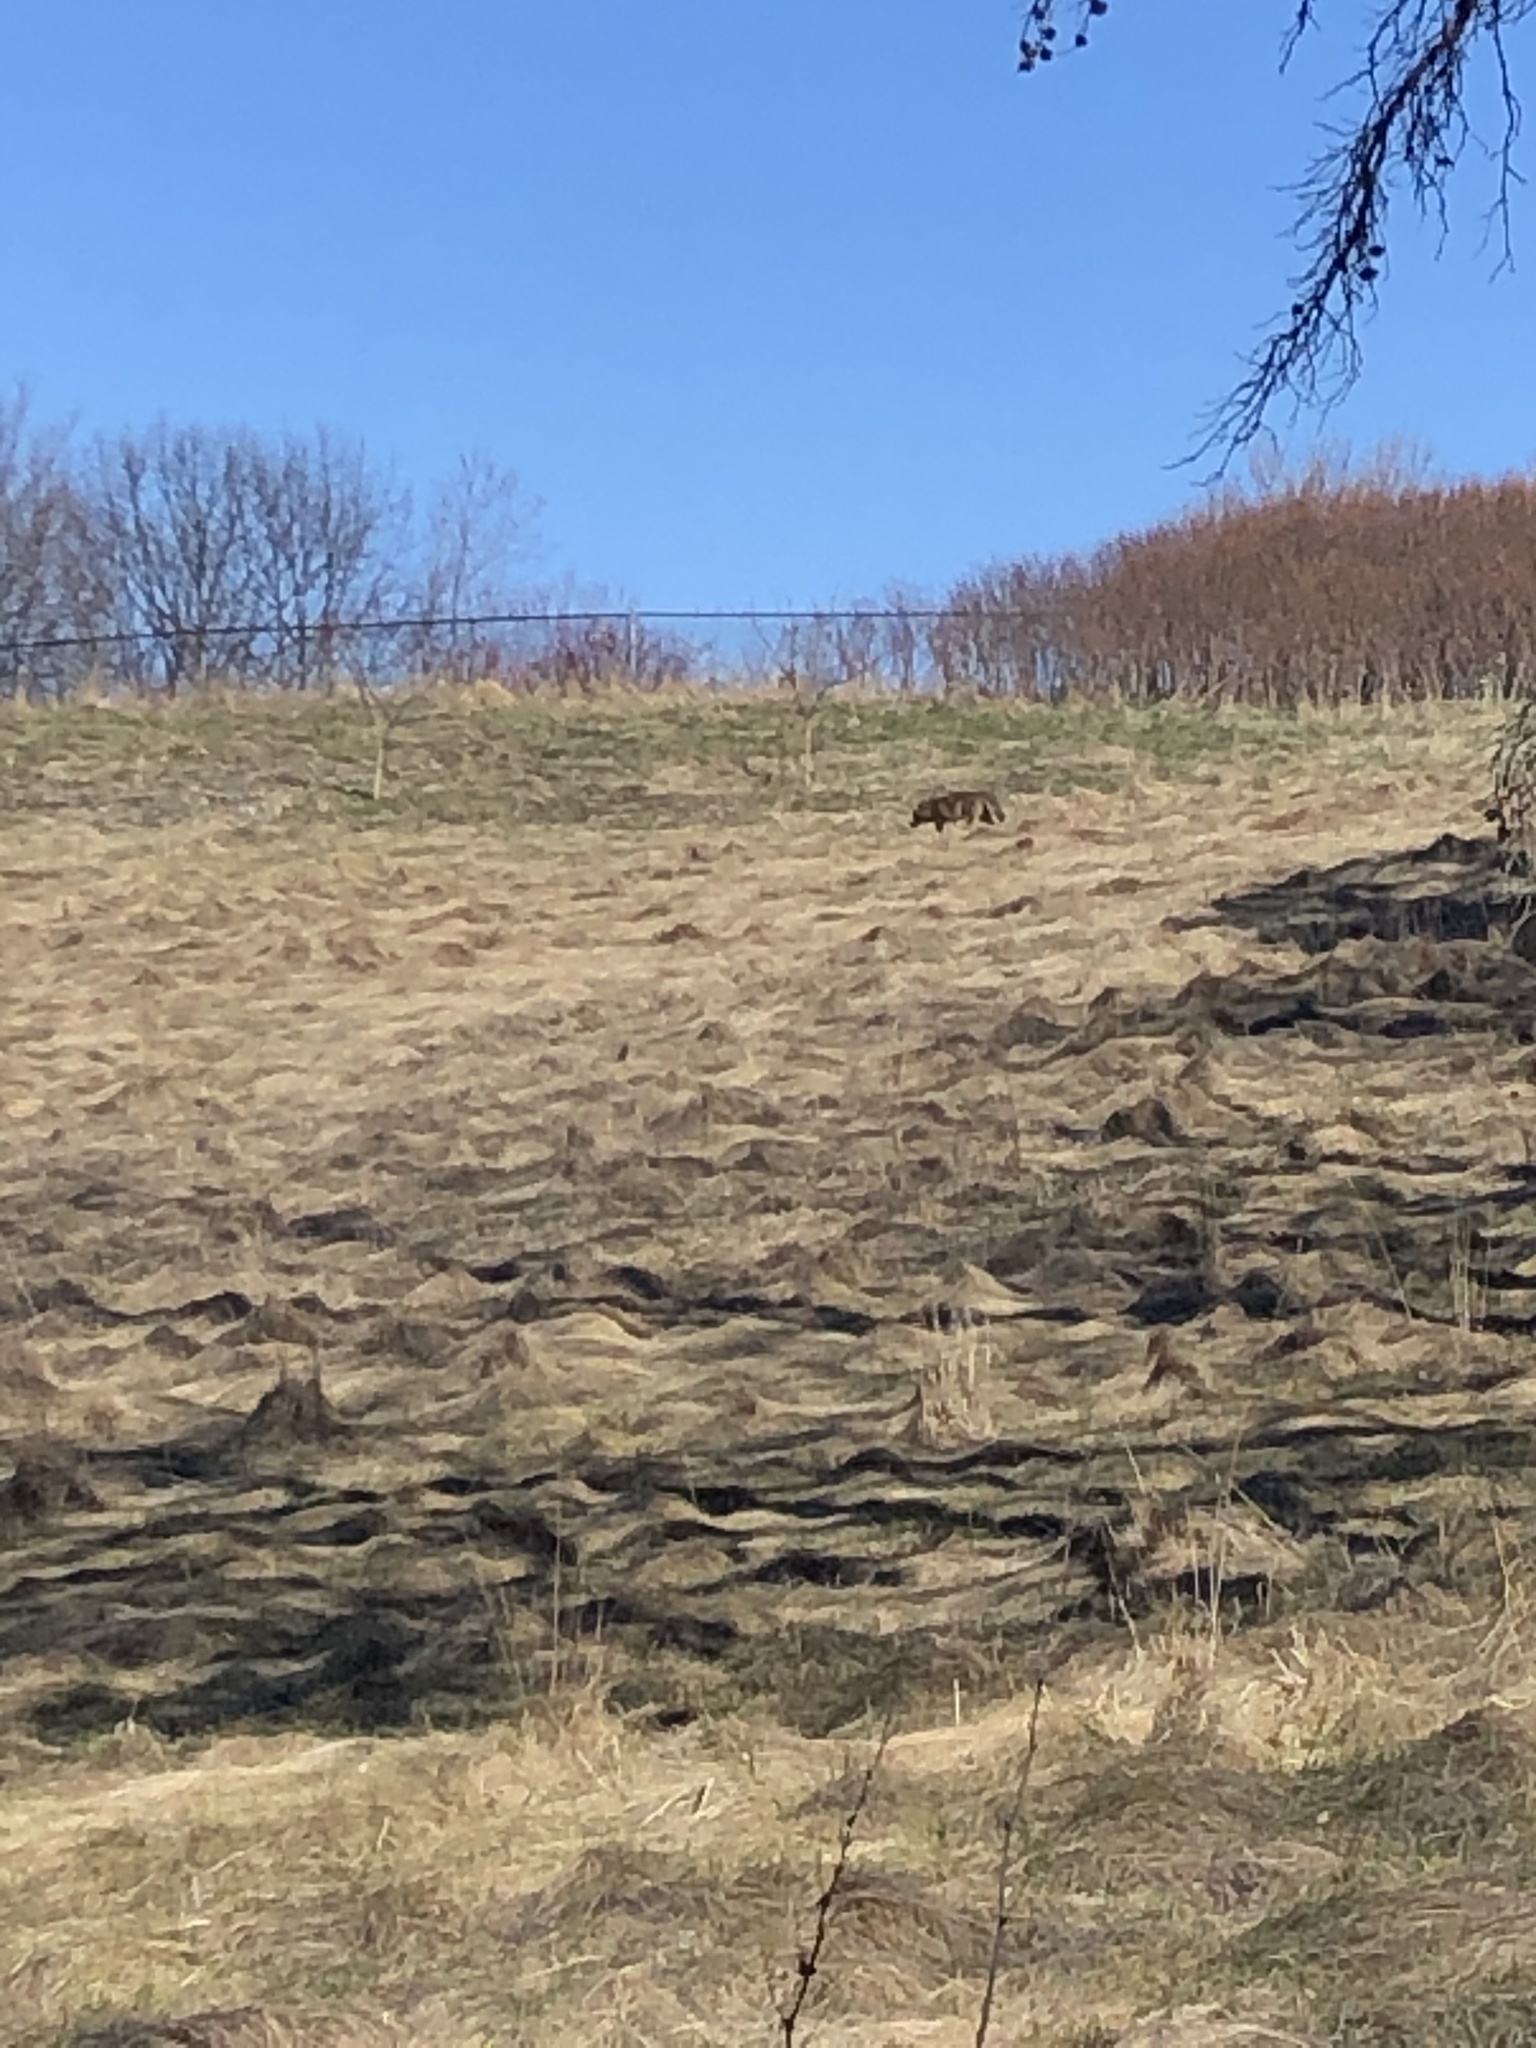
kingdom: Animalia
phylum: Chordata
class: Mammalia
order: Carnivora
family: Canidae
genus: Canis
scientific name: Canis latrans
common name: Coyote
